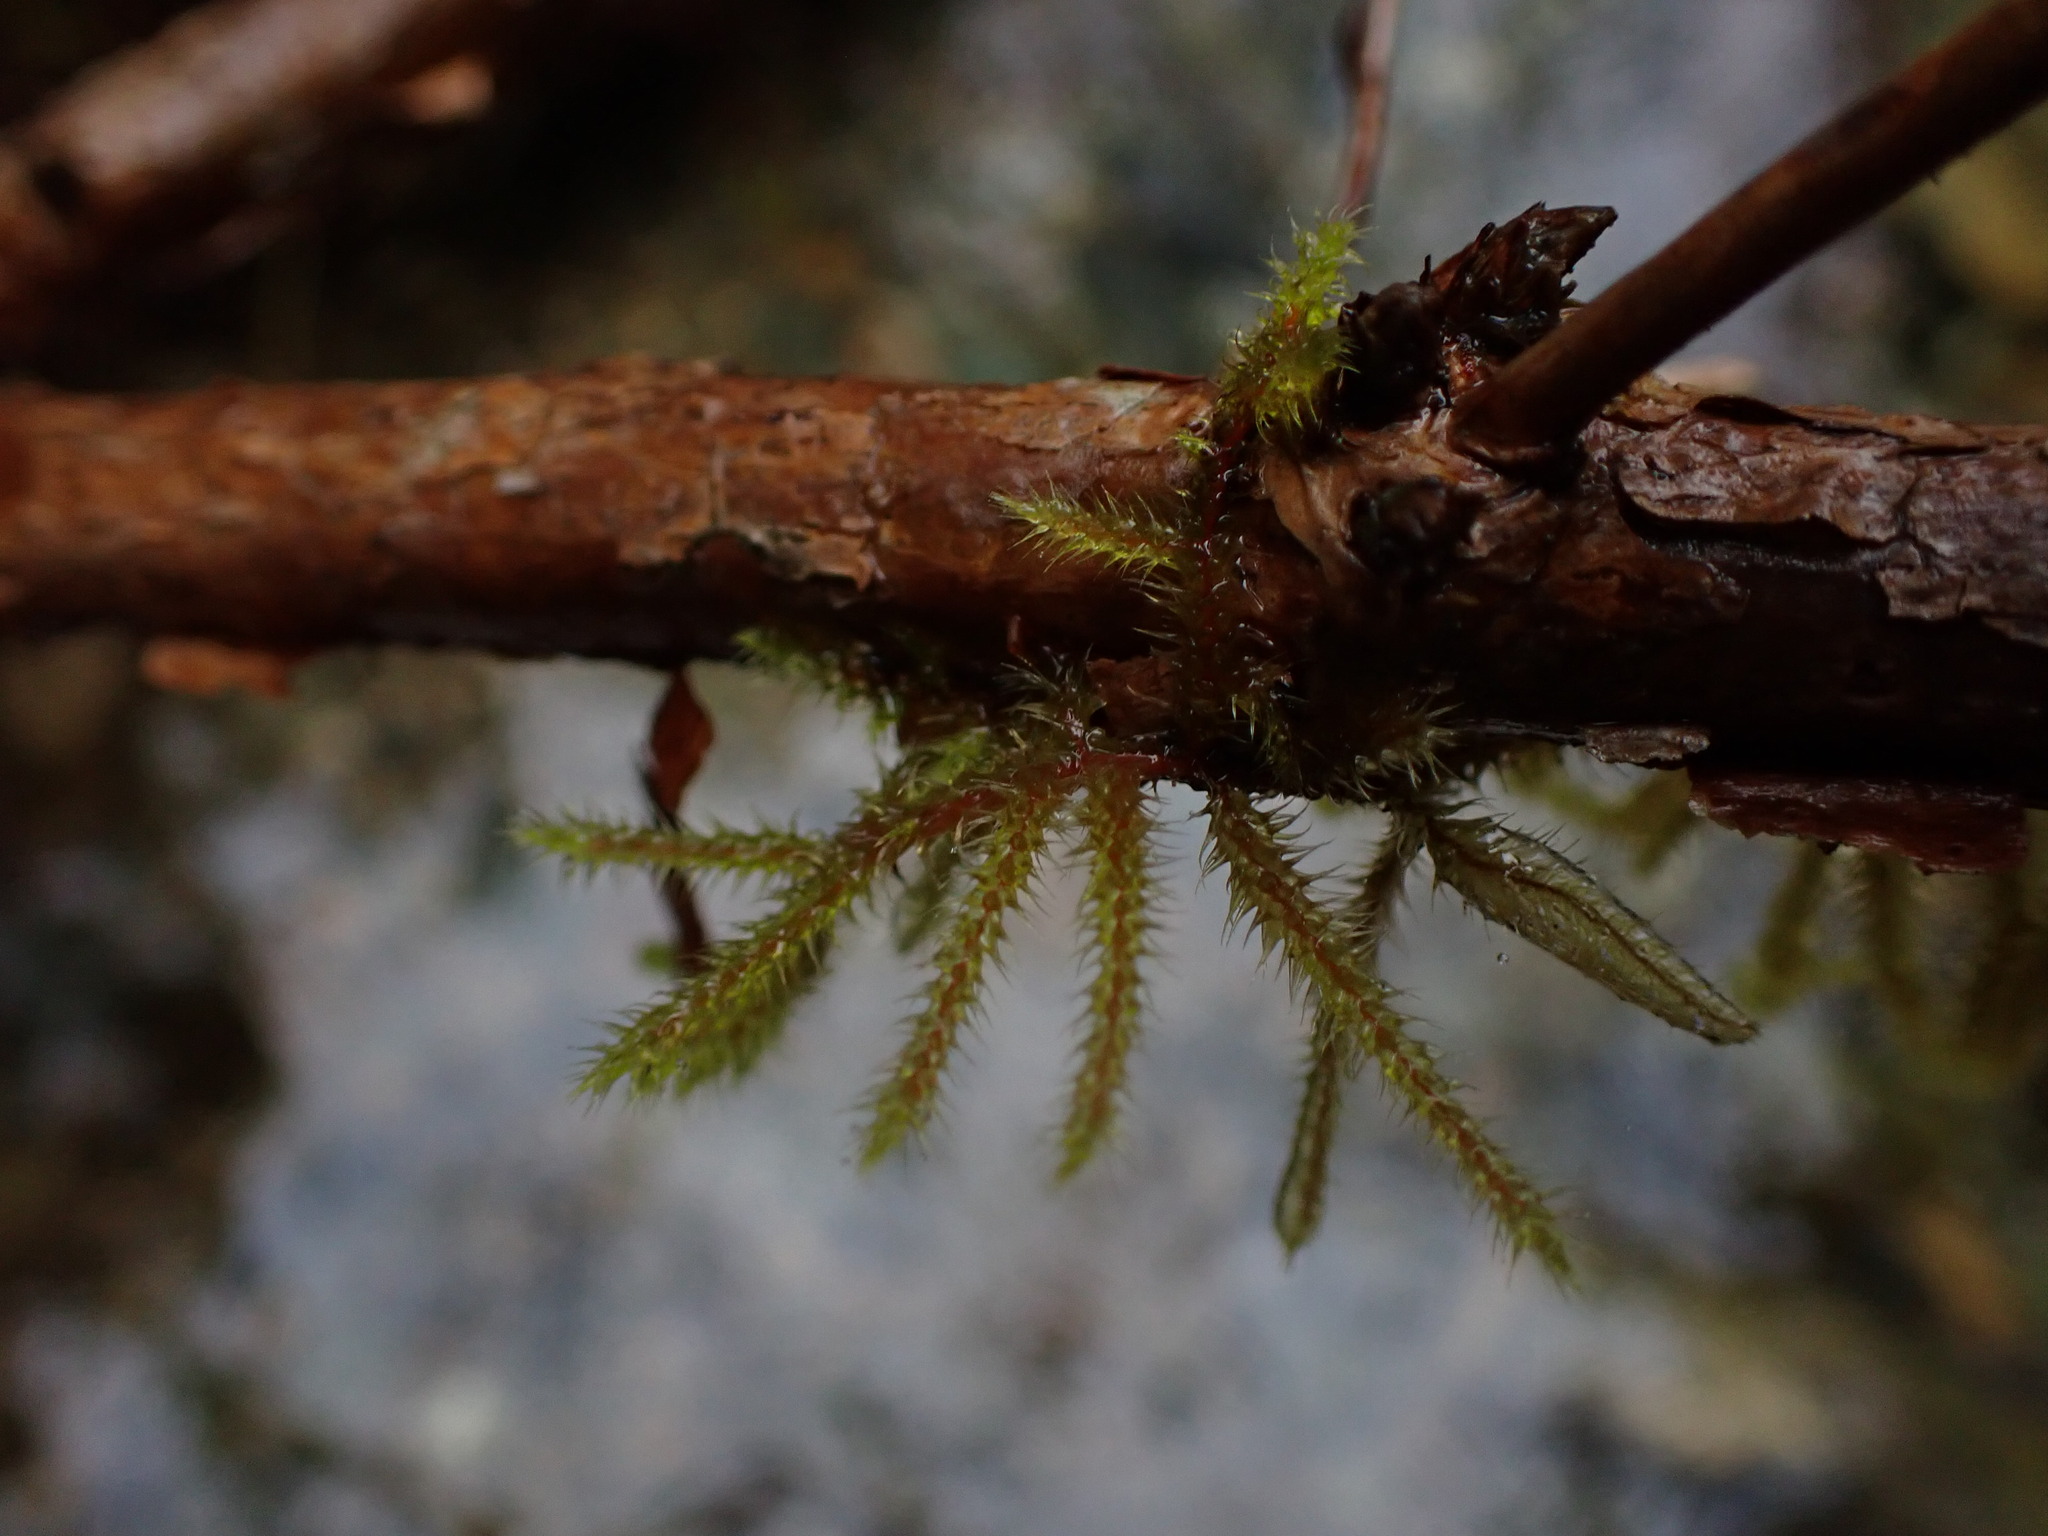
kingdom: Plantae
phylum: Bryophyta
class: Bryopsida
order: Hypnales
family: Hylocomiaceae
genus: Rhytidiadelphus
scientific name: Rhytidiadelphus loreus
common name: Lanky moss
